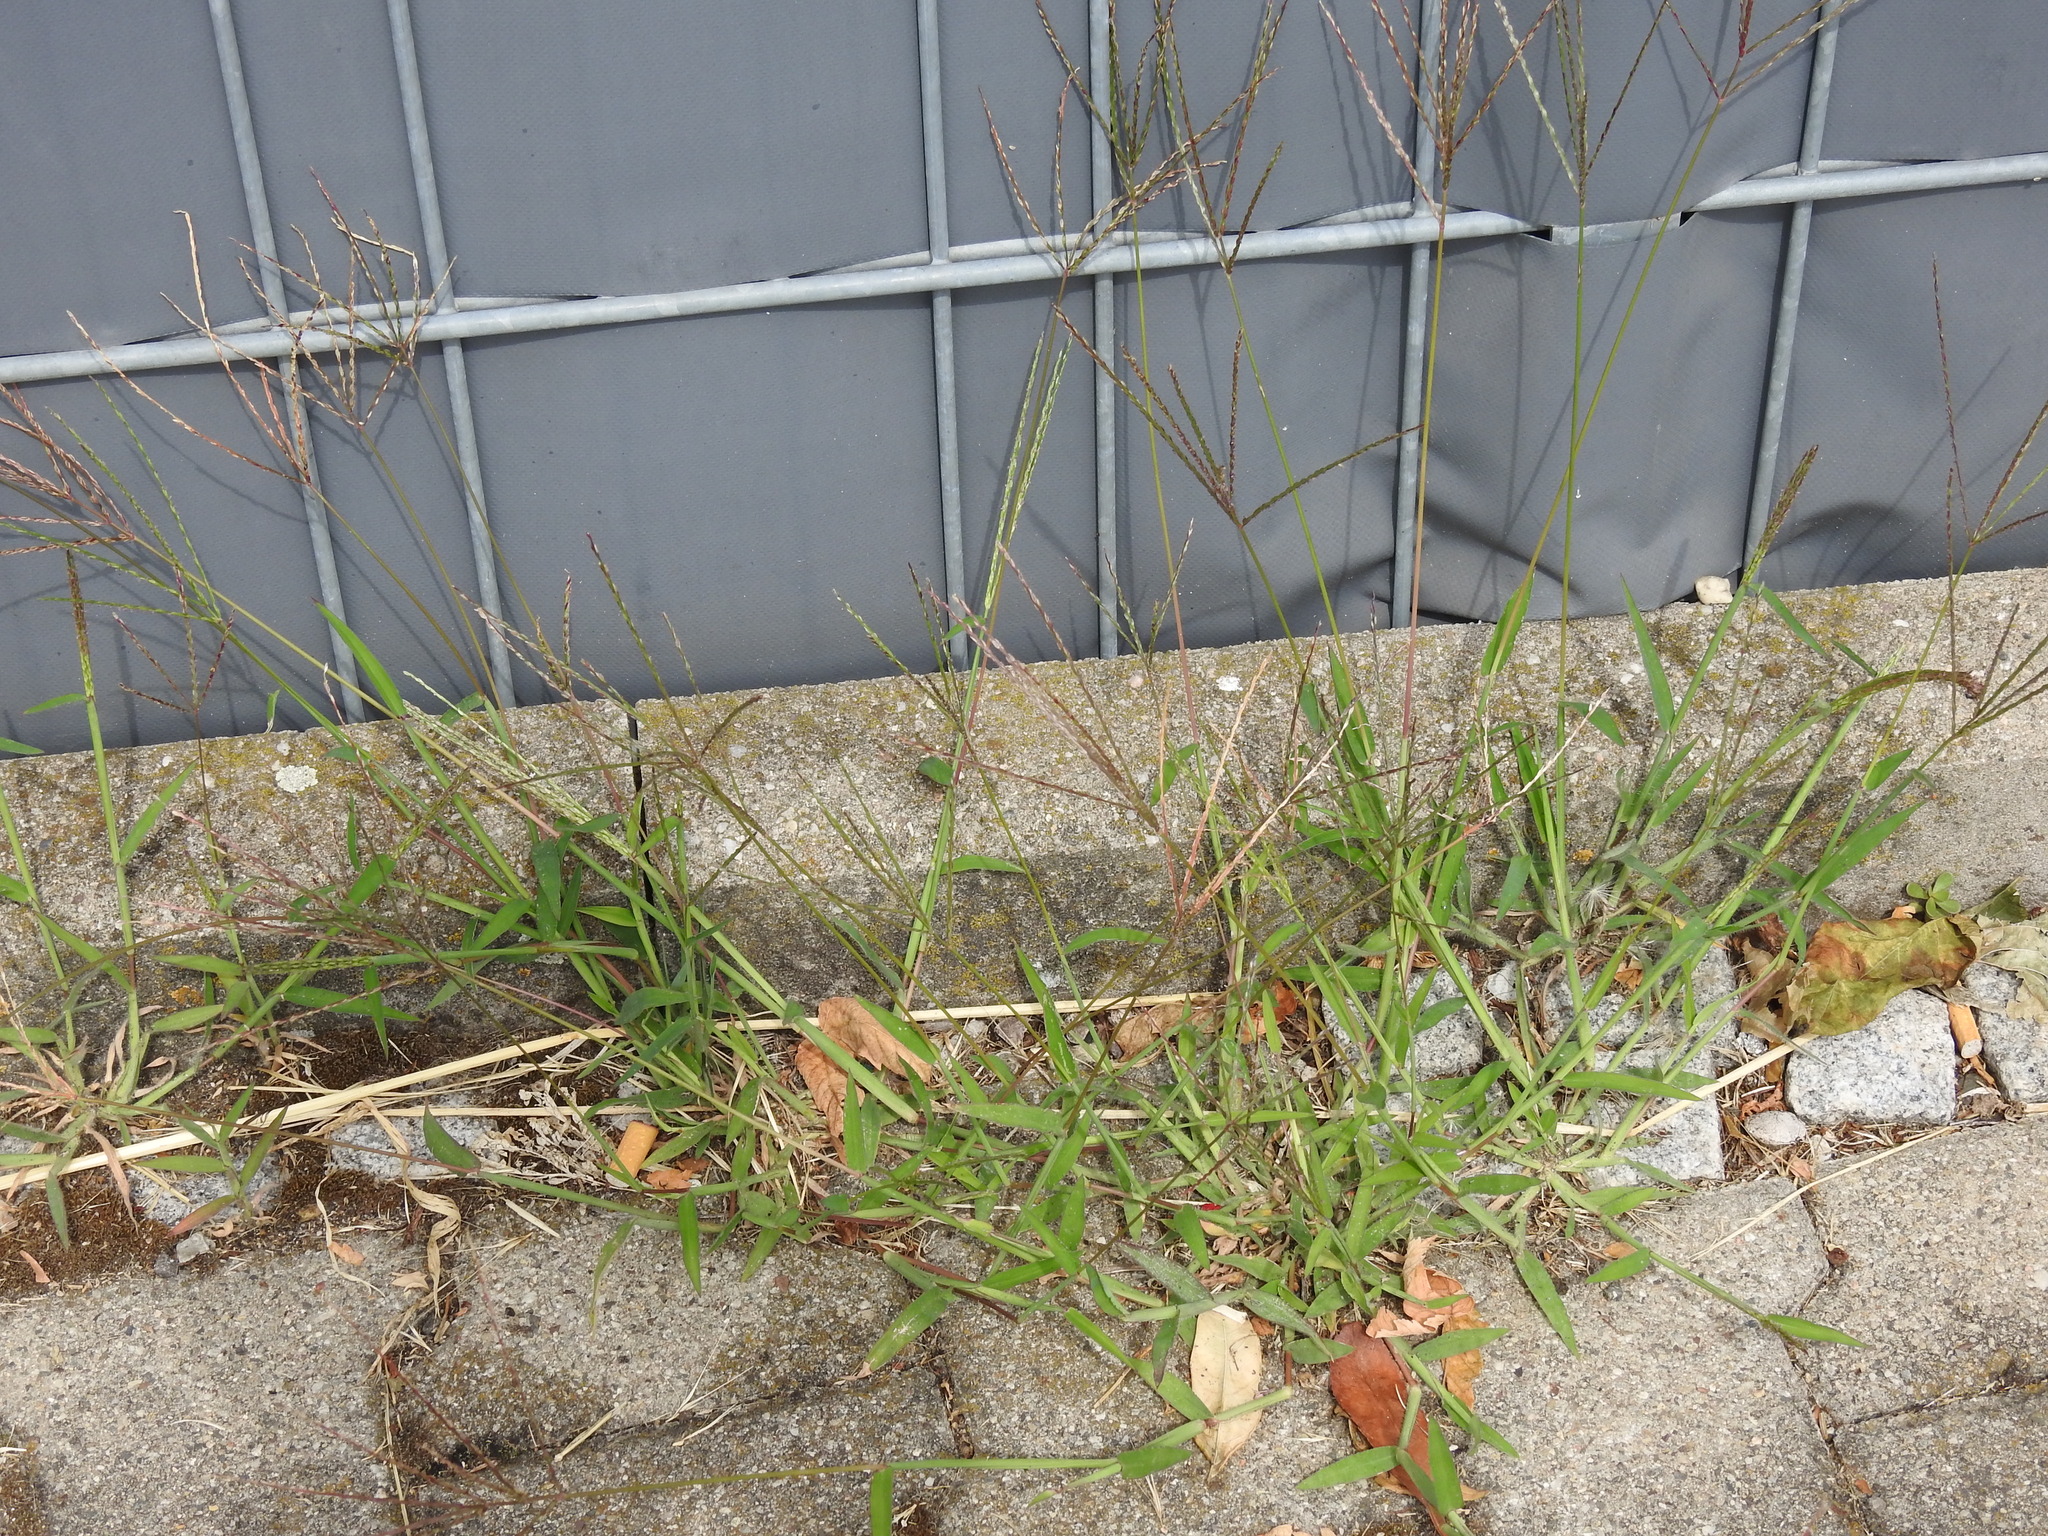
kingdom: Plantae
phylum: Tracheophyta
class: Liliopsida
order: Poales
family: Poaceae
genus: Digitaria
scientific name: Digitaria sanguinalis
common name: Hairy crabgrass
